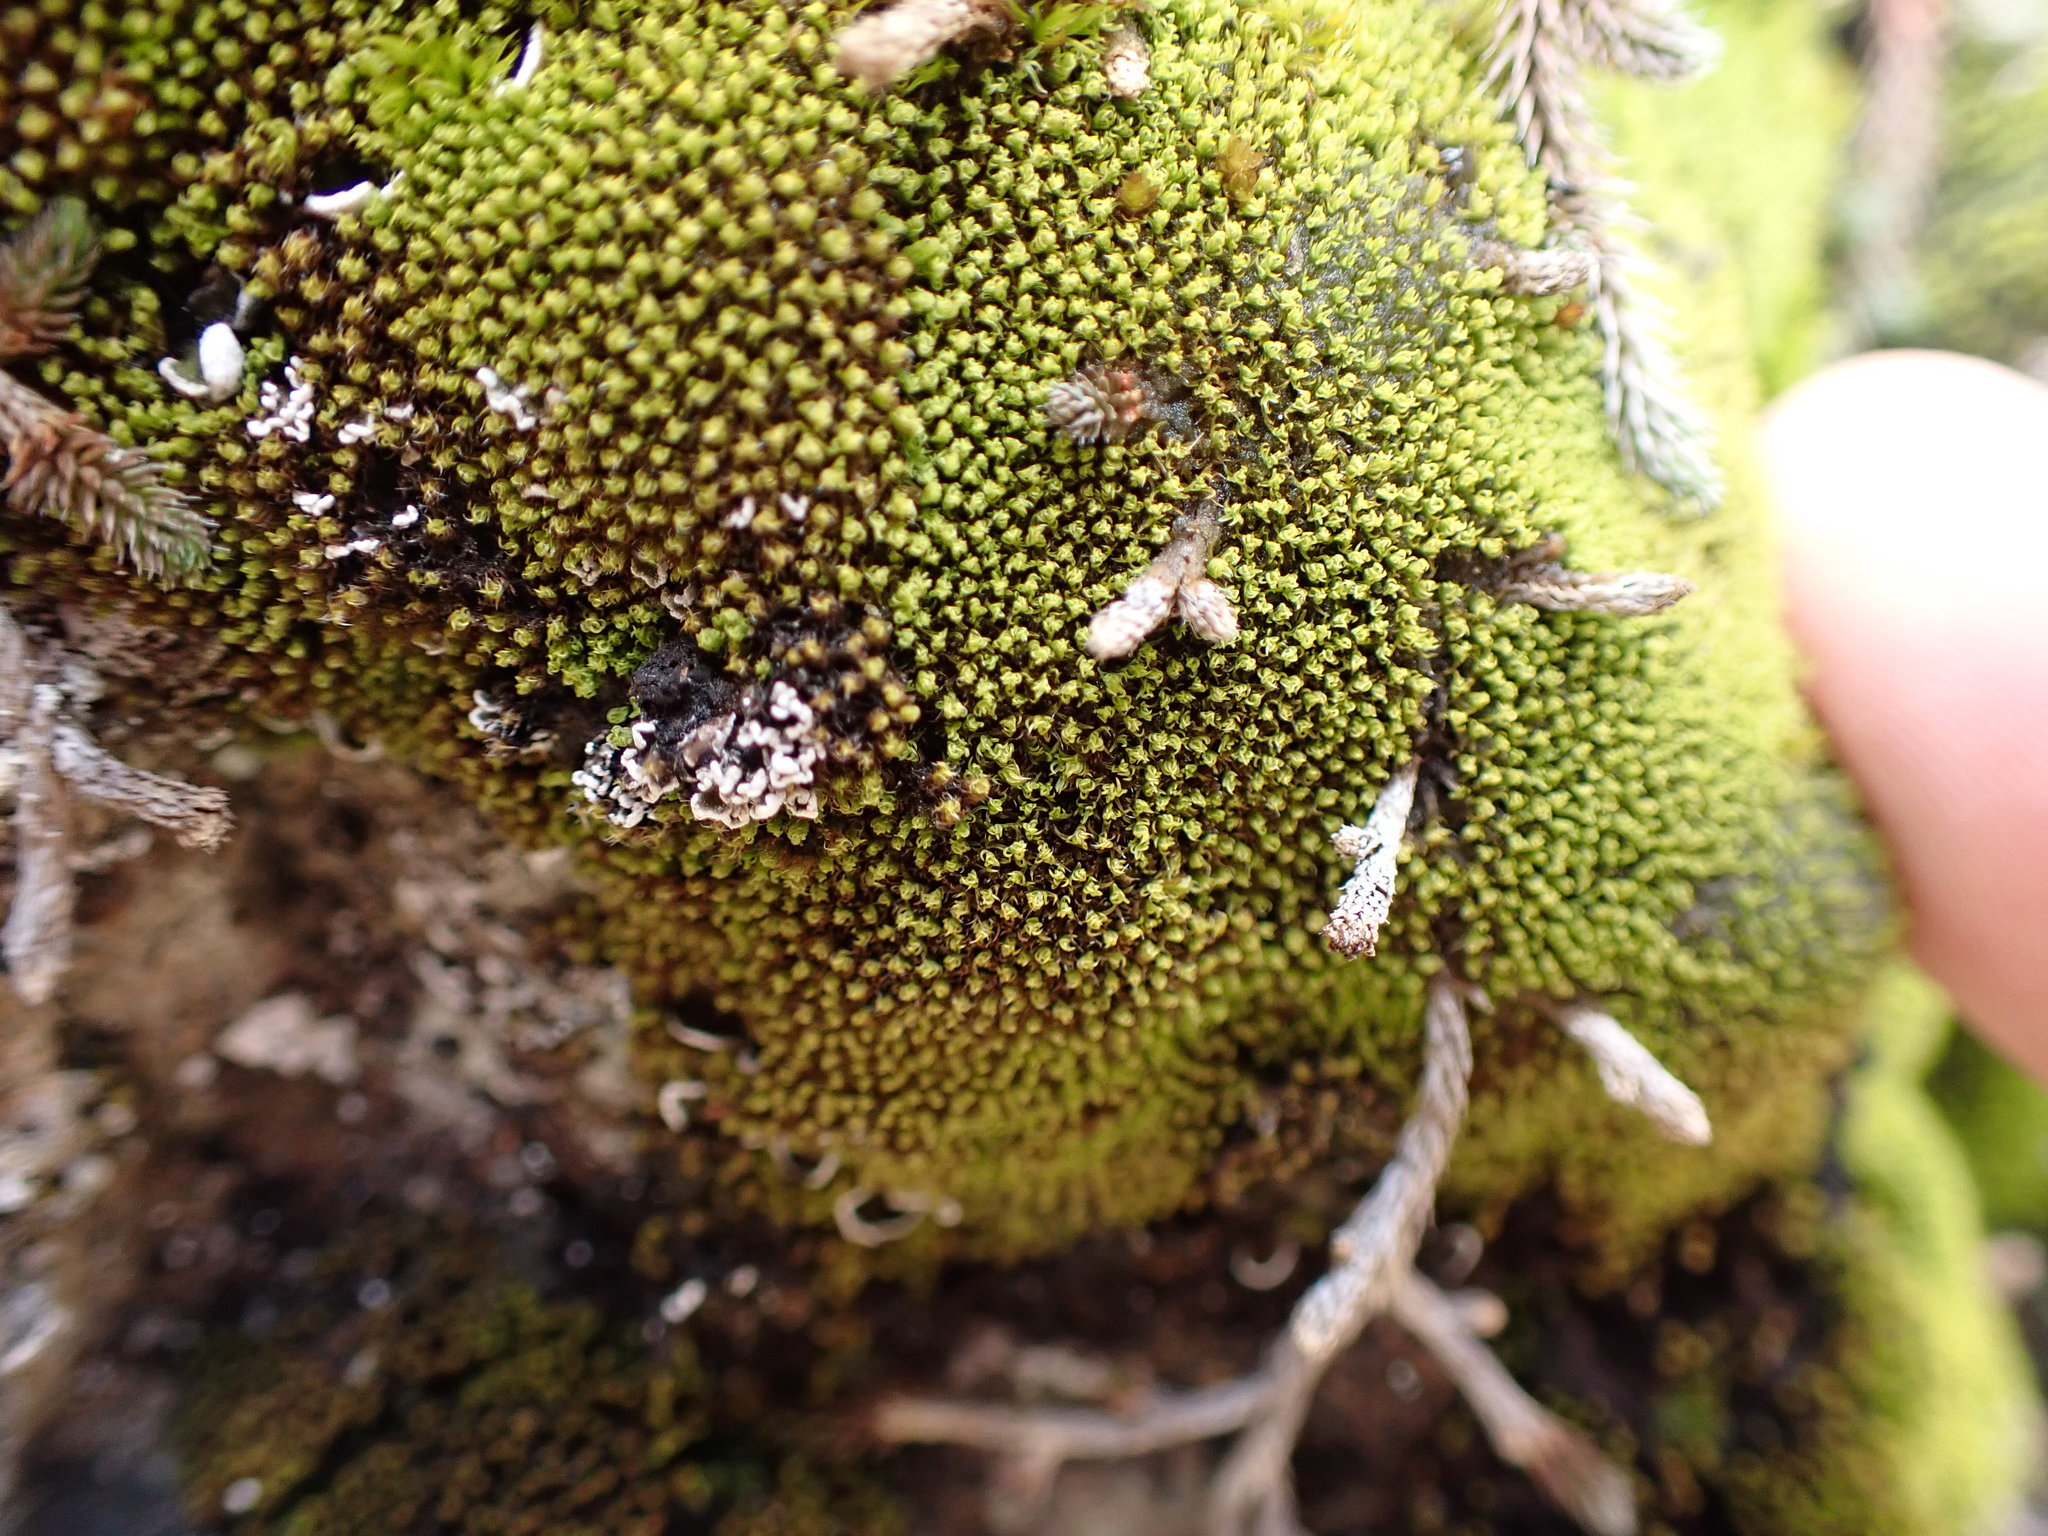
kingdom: Plantae
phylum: Bryophyta
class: Bryopsida
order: Grimmiales
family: Grimmiaceae
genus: Grimmia
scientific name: Grimmia torquata
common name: Twisted grimmia
